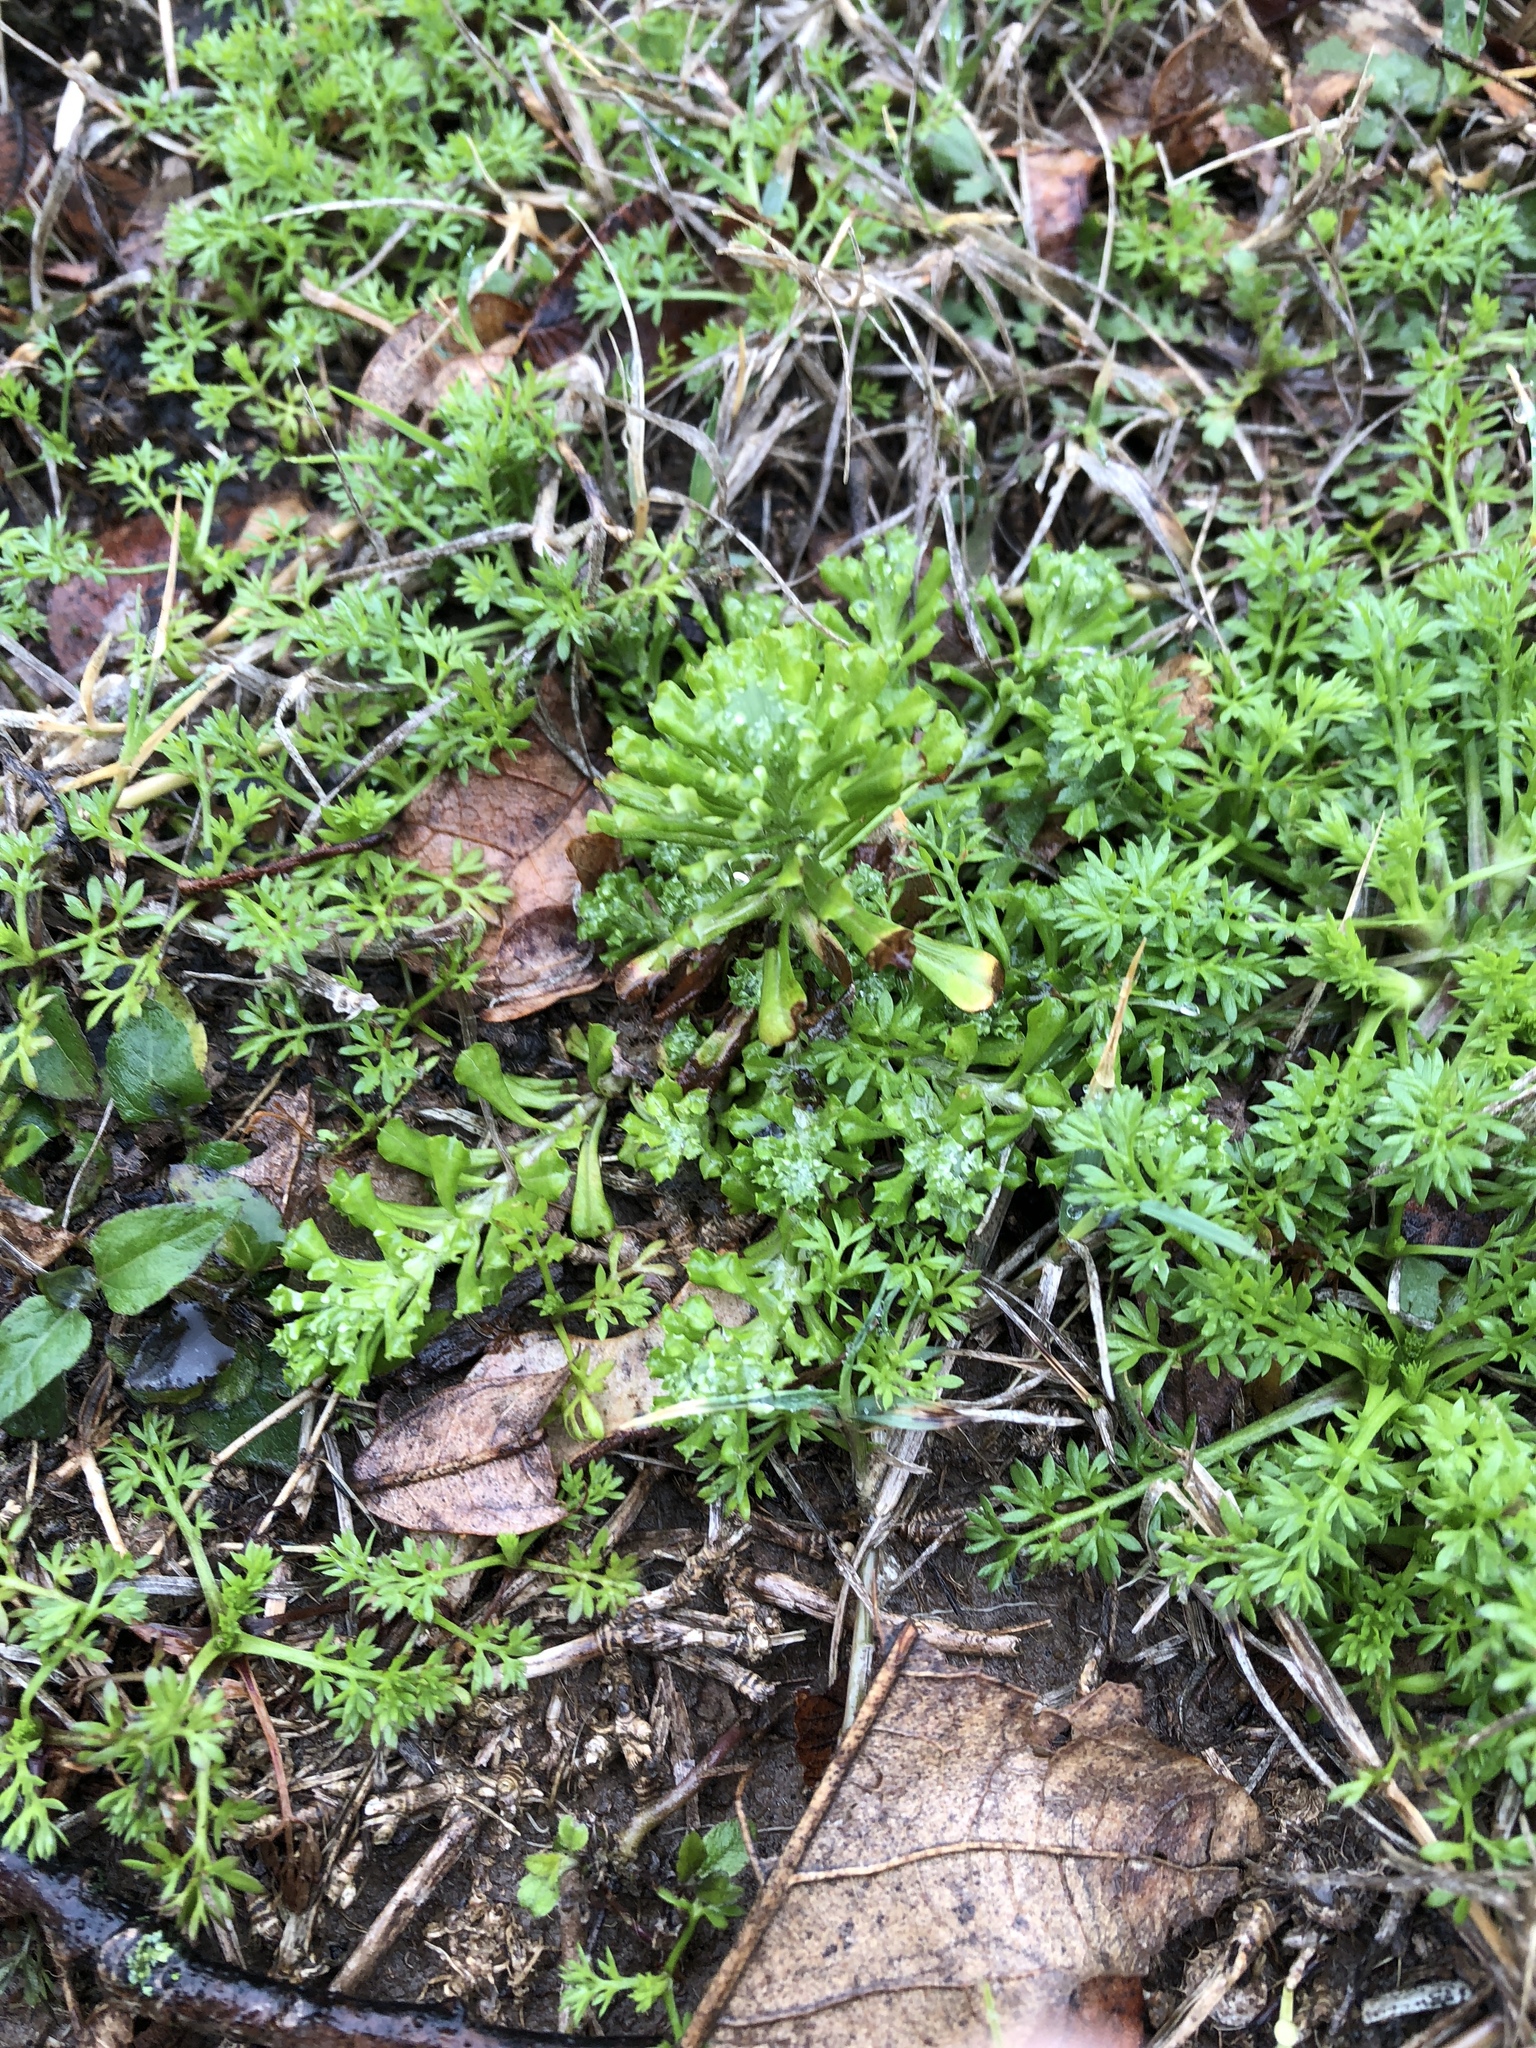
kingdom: Plantae
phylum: Tracheophyta
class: Magnoliopsida
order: Asterales
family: Asteraceae
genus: Facelis
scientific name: Facelis retusa
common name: Annual trampweed
